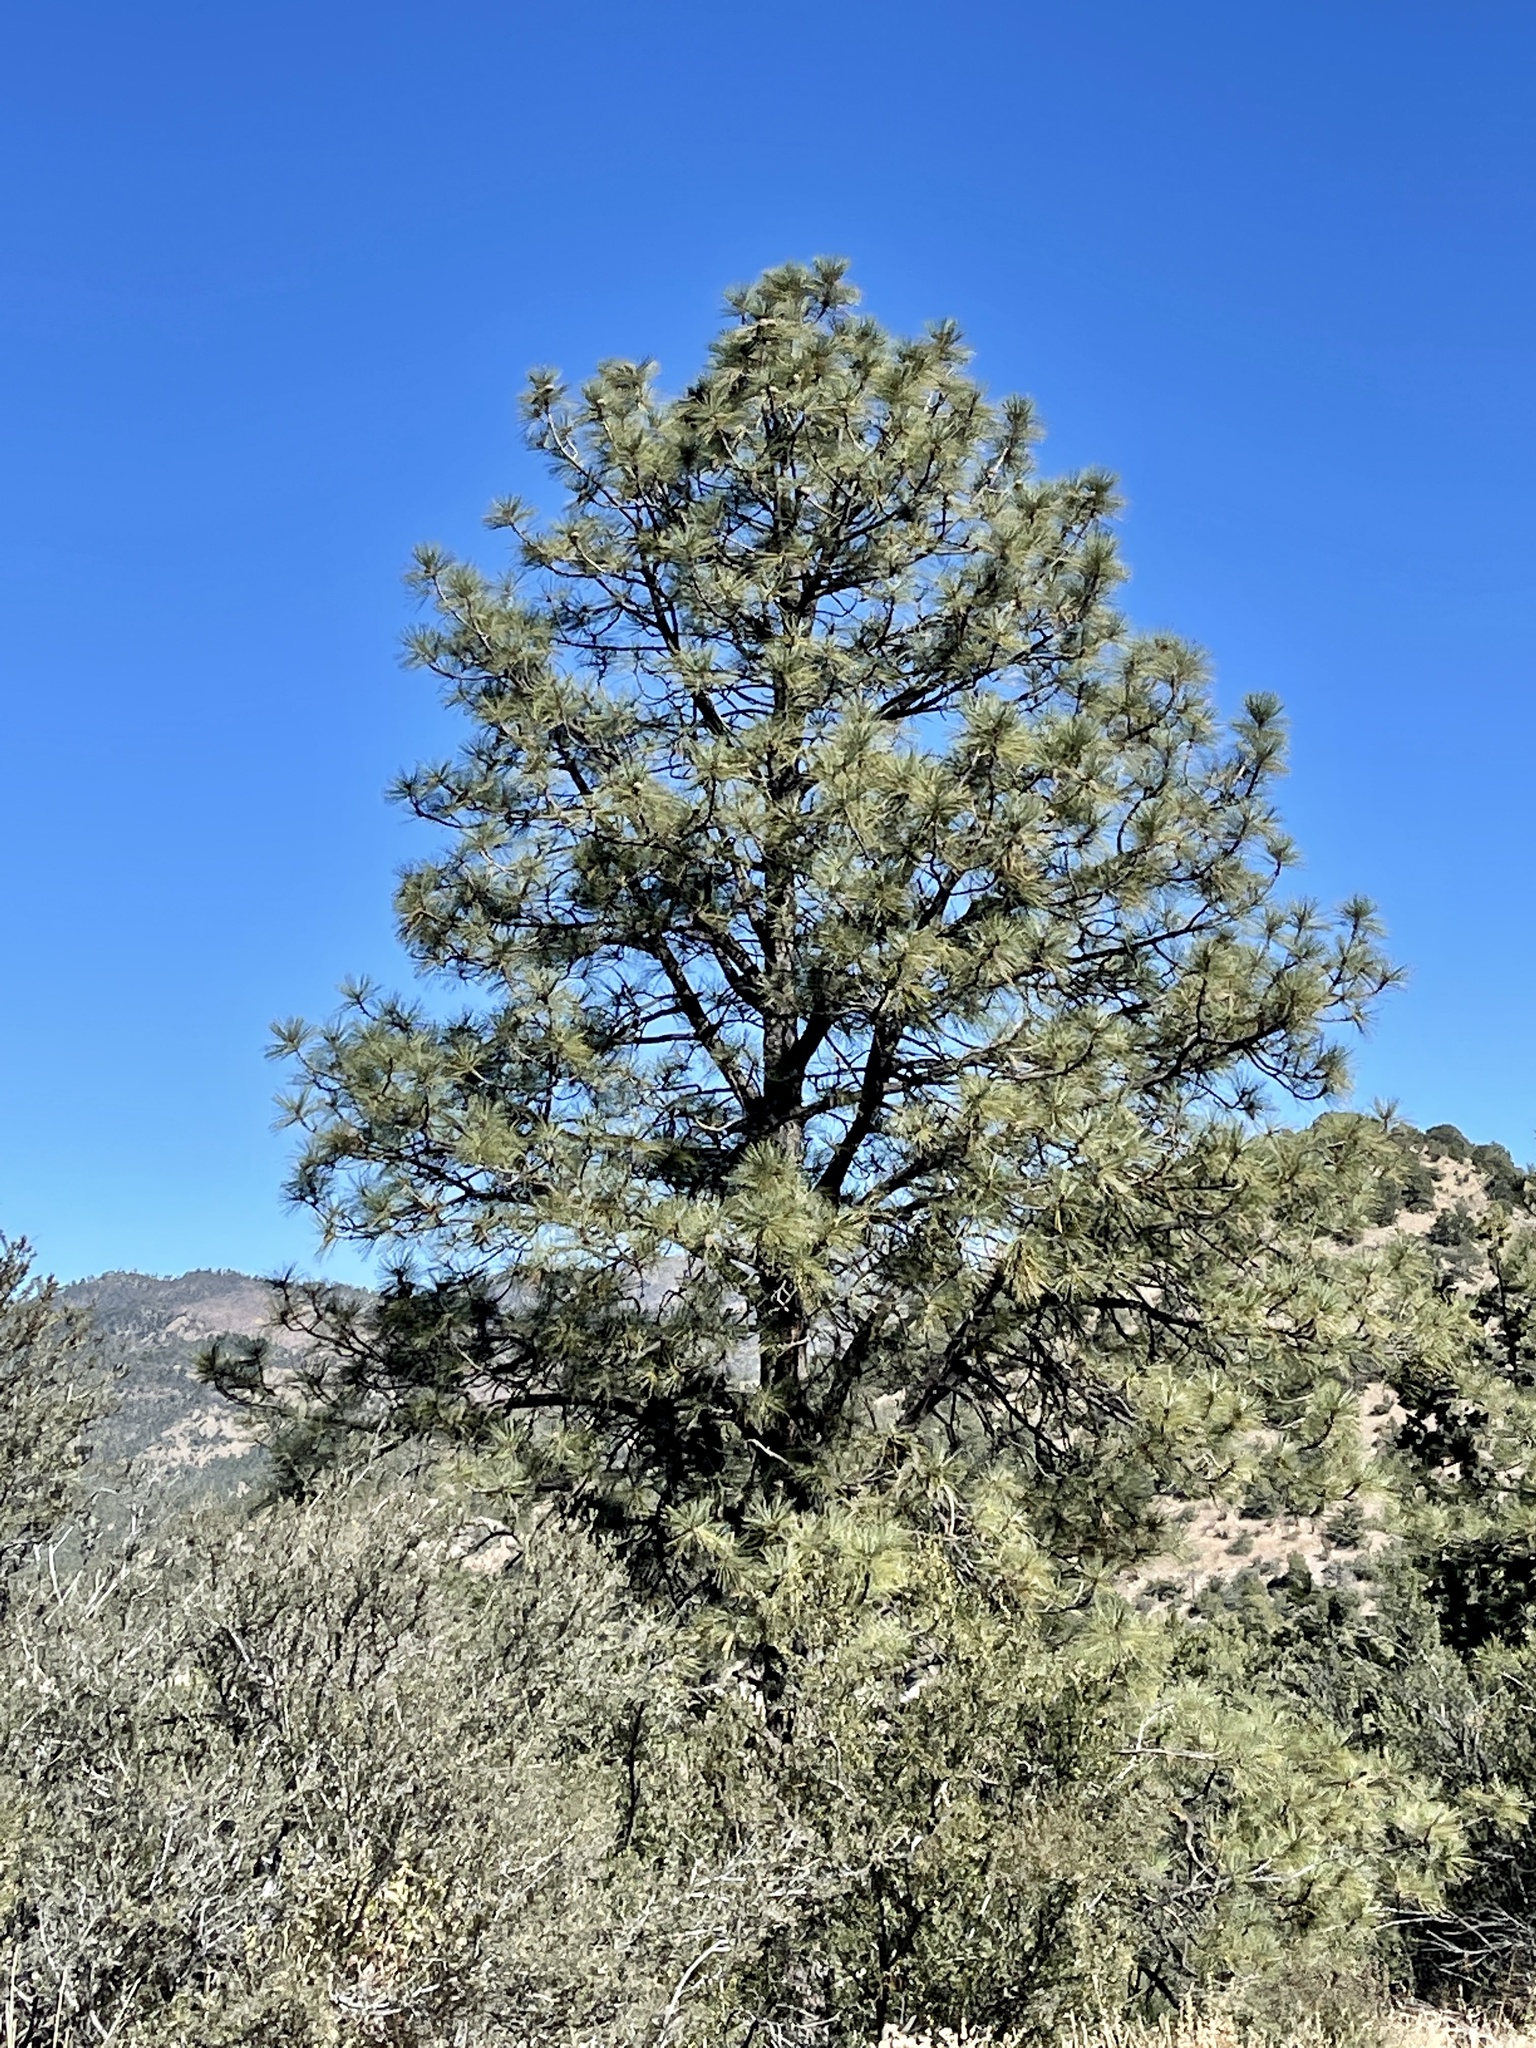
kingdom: Plantae
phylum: Tracheophyta
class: Pinopsida
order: Pinales
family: Pinaceae
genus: Pinus
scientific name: Pinus ponderosa
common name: Western yellow-pine
